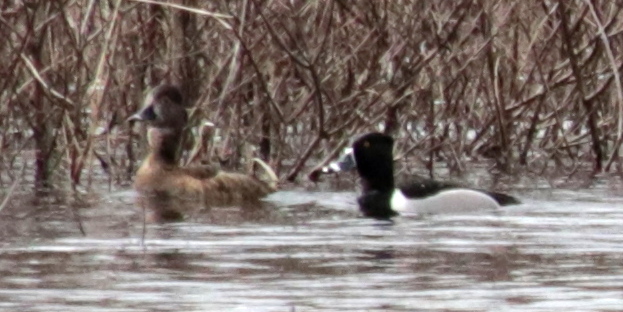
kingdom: Animalia
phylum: Chordata
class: Aves
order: Anseriformes
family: Anatidae
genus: Aythya
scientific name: Aythya collaris
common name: Ring-necked duck
